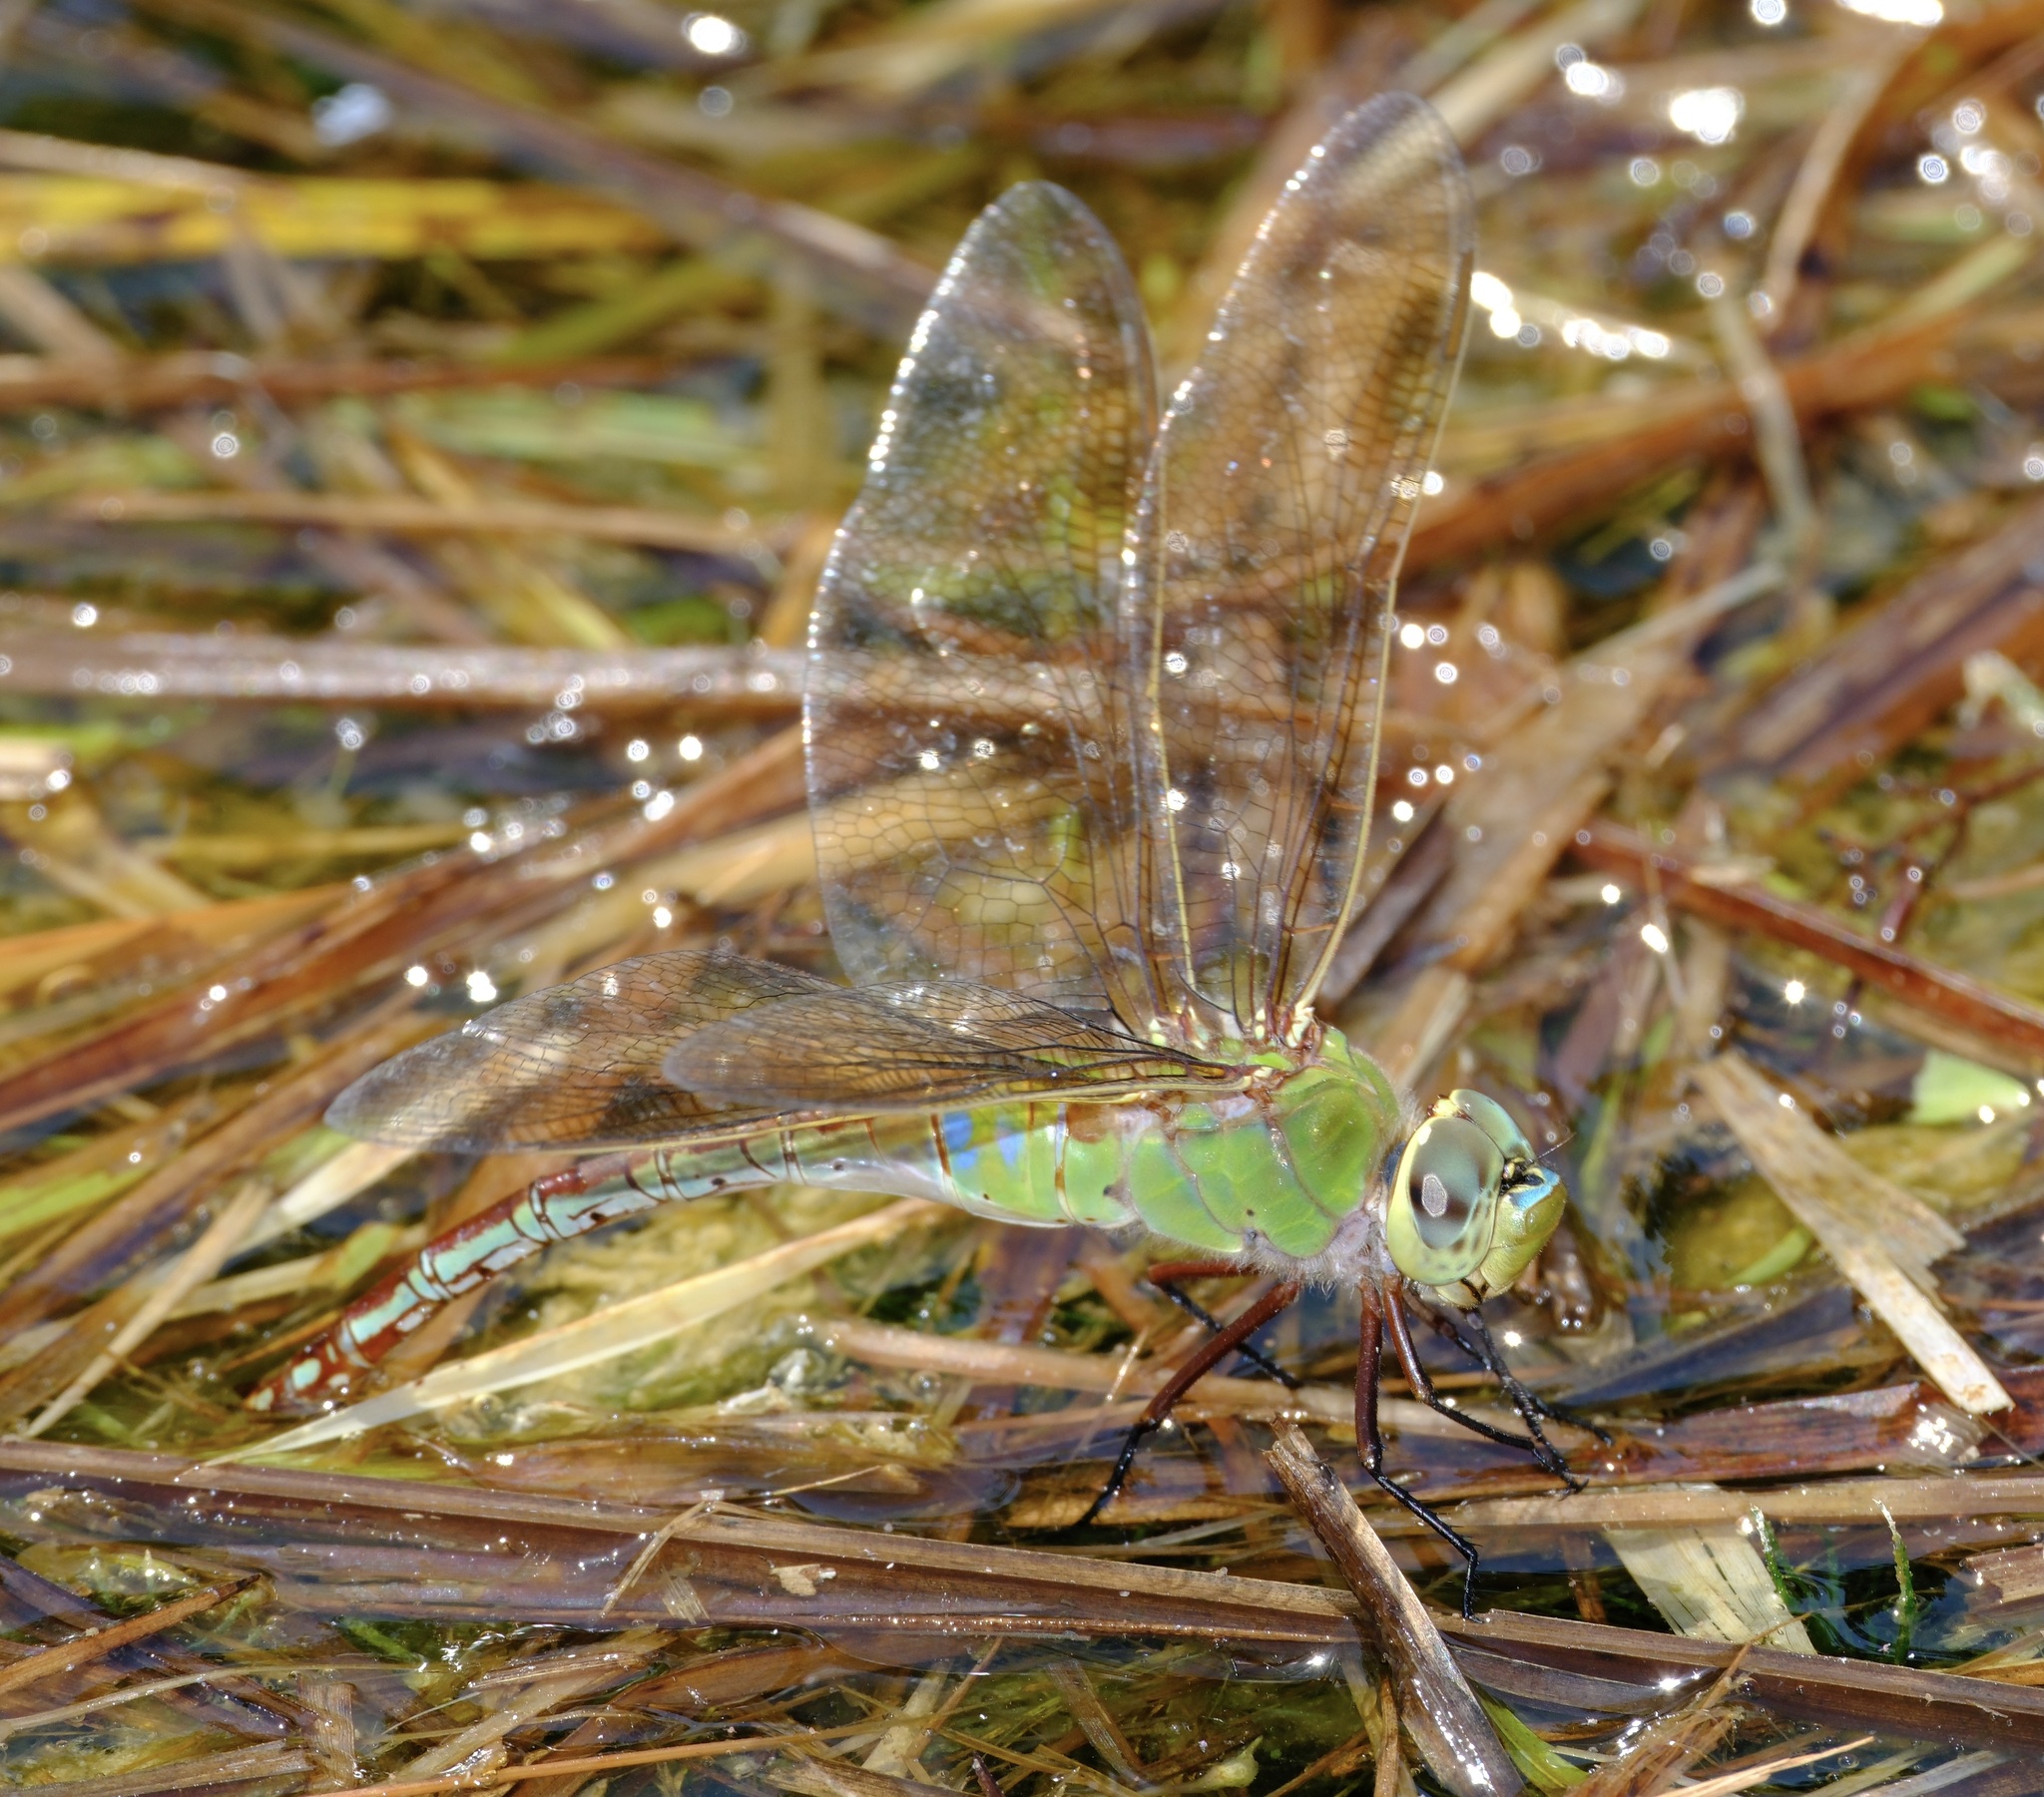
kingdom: Animalia
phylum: Arthropoda
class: Insecta
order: Odonata
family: Aeshnidae
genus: Anax
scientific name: Anax junius
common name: Common green darner
